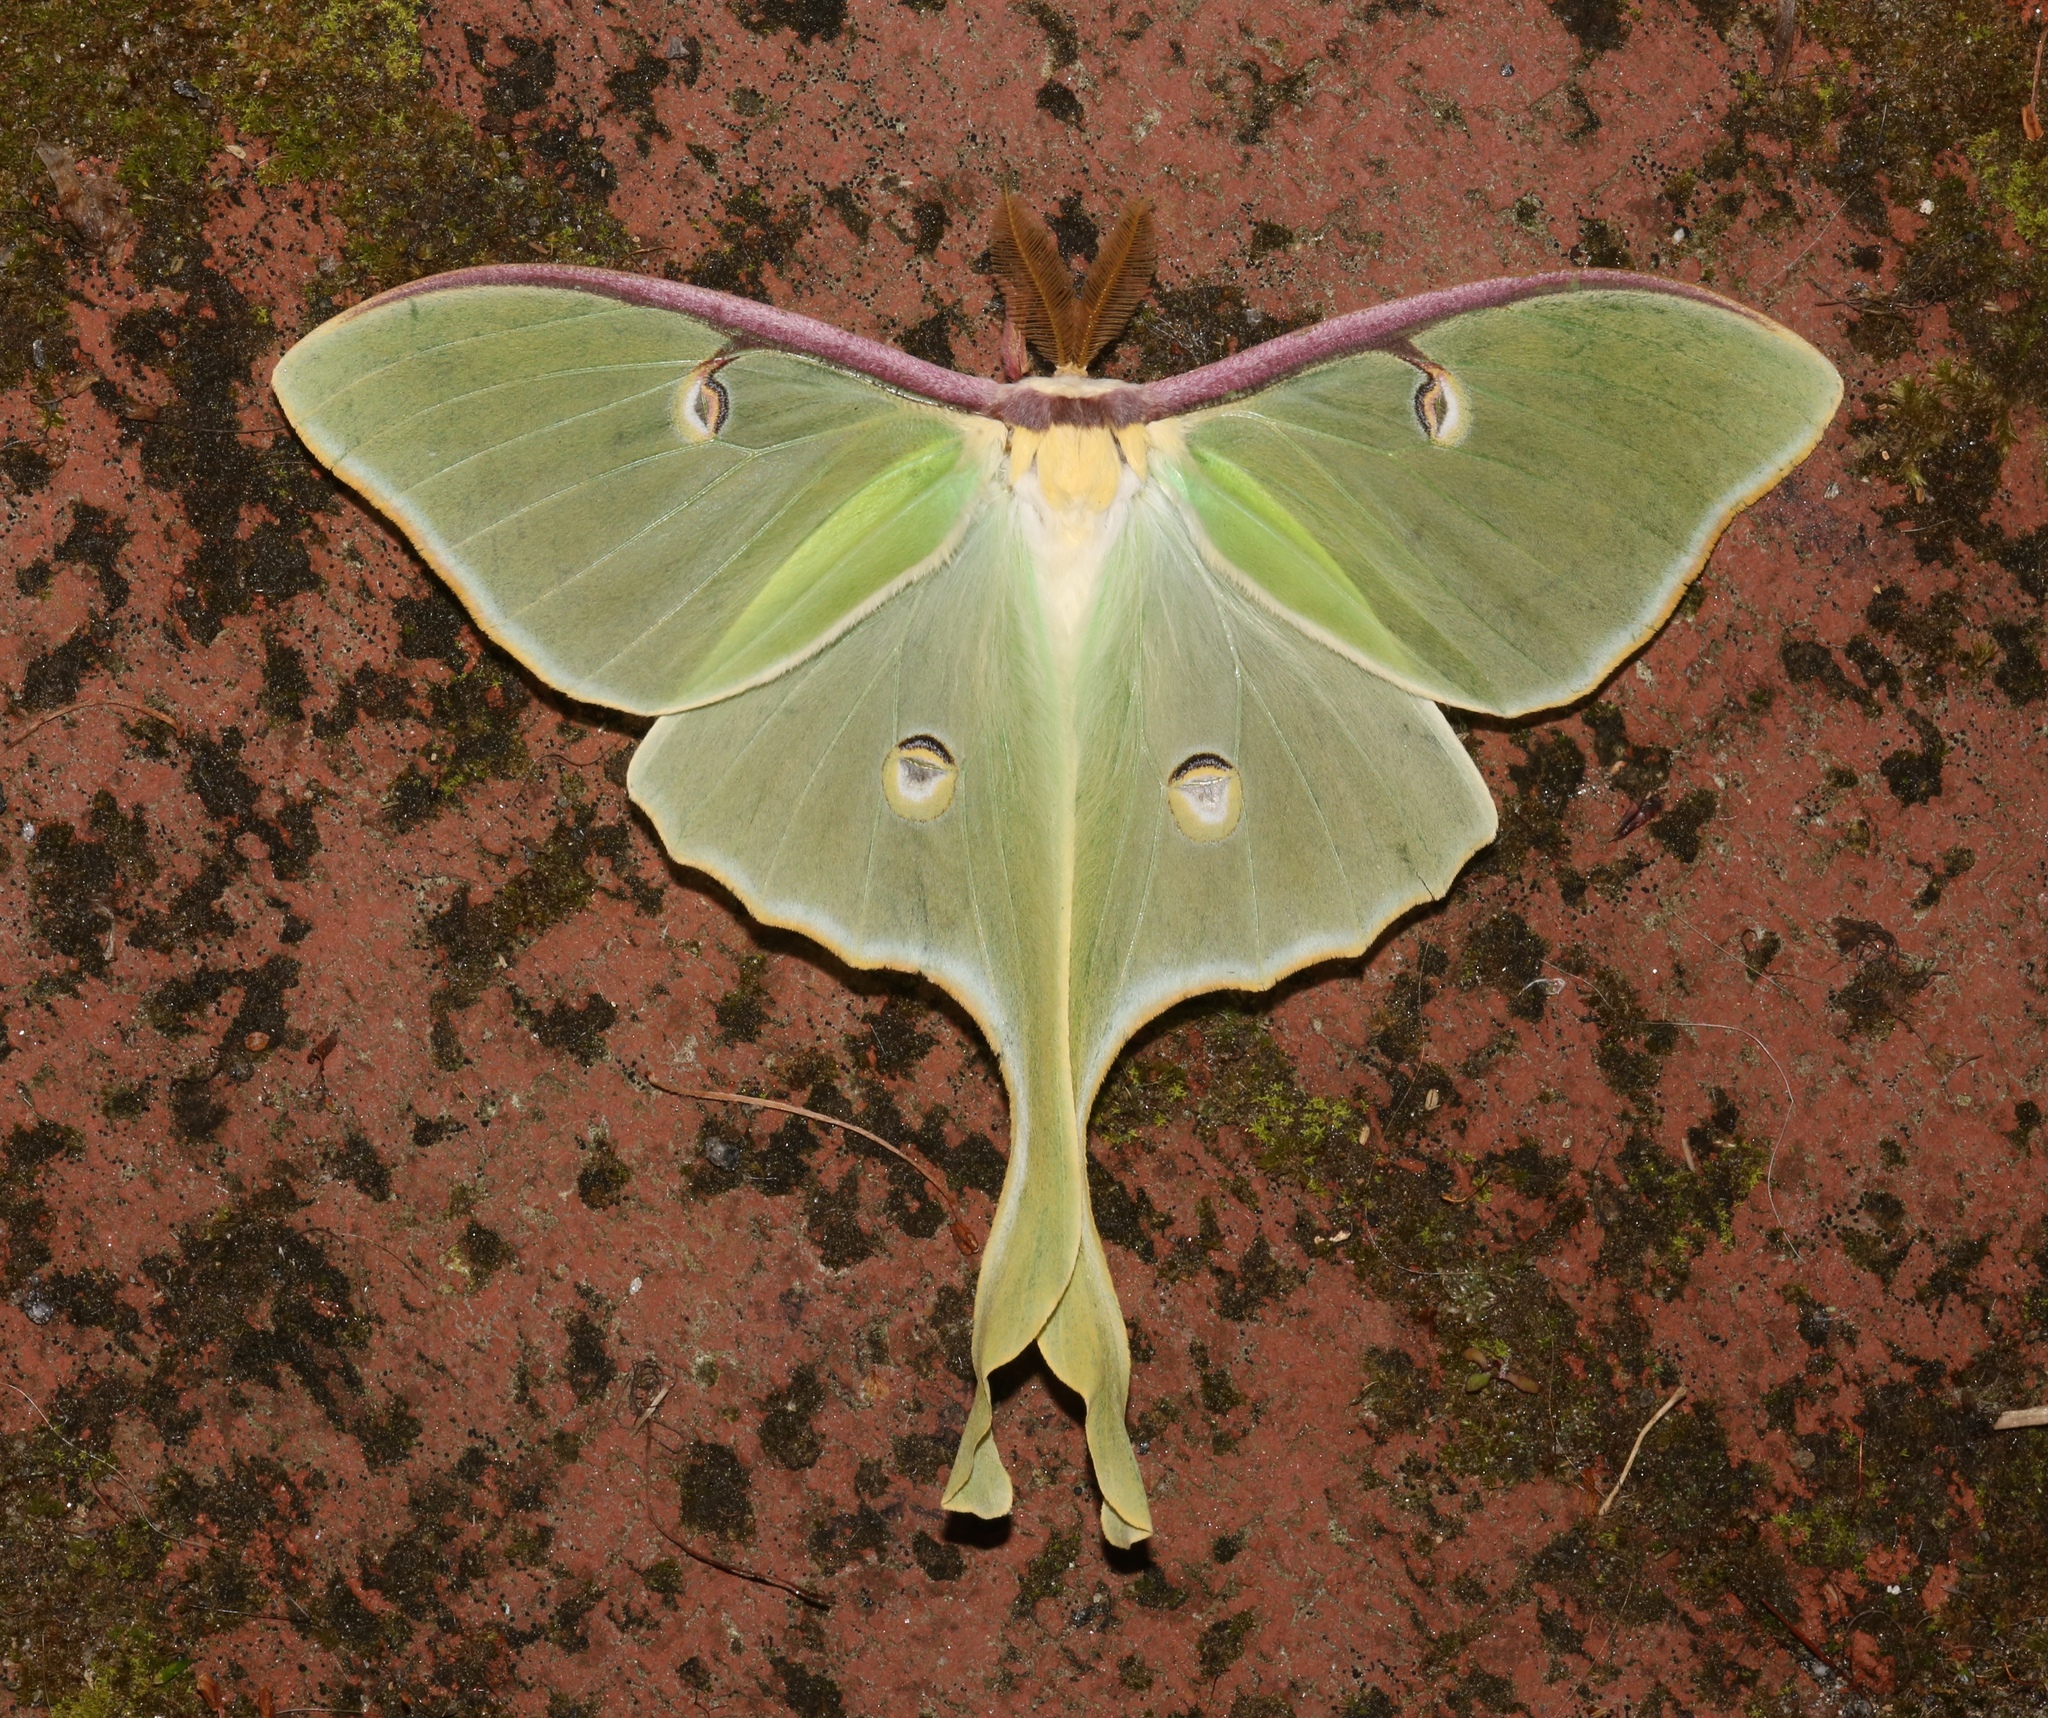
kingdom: Animalia
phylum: Arthropoda
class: Insecta
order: Lepidoptera
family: Saturniidae
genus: Actias
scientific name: Actias luna
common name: Luna moth
